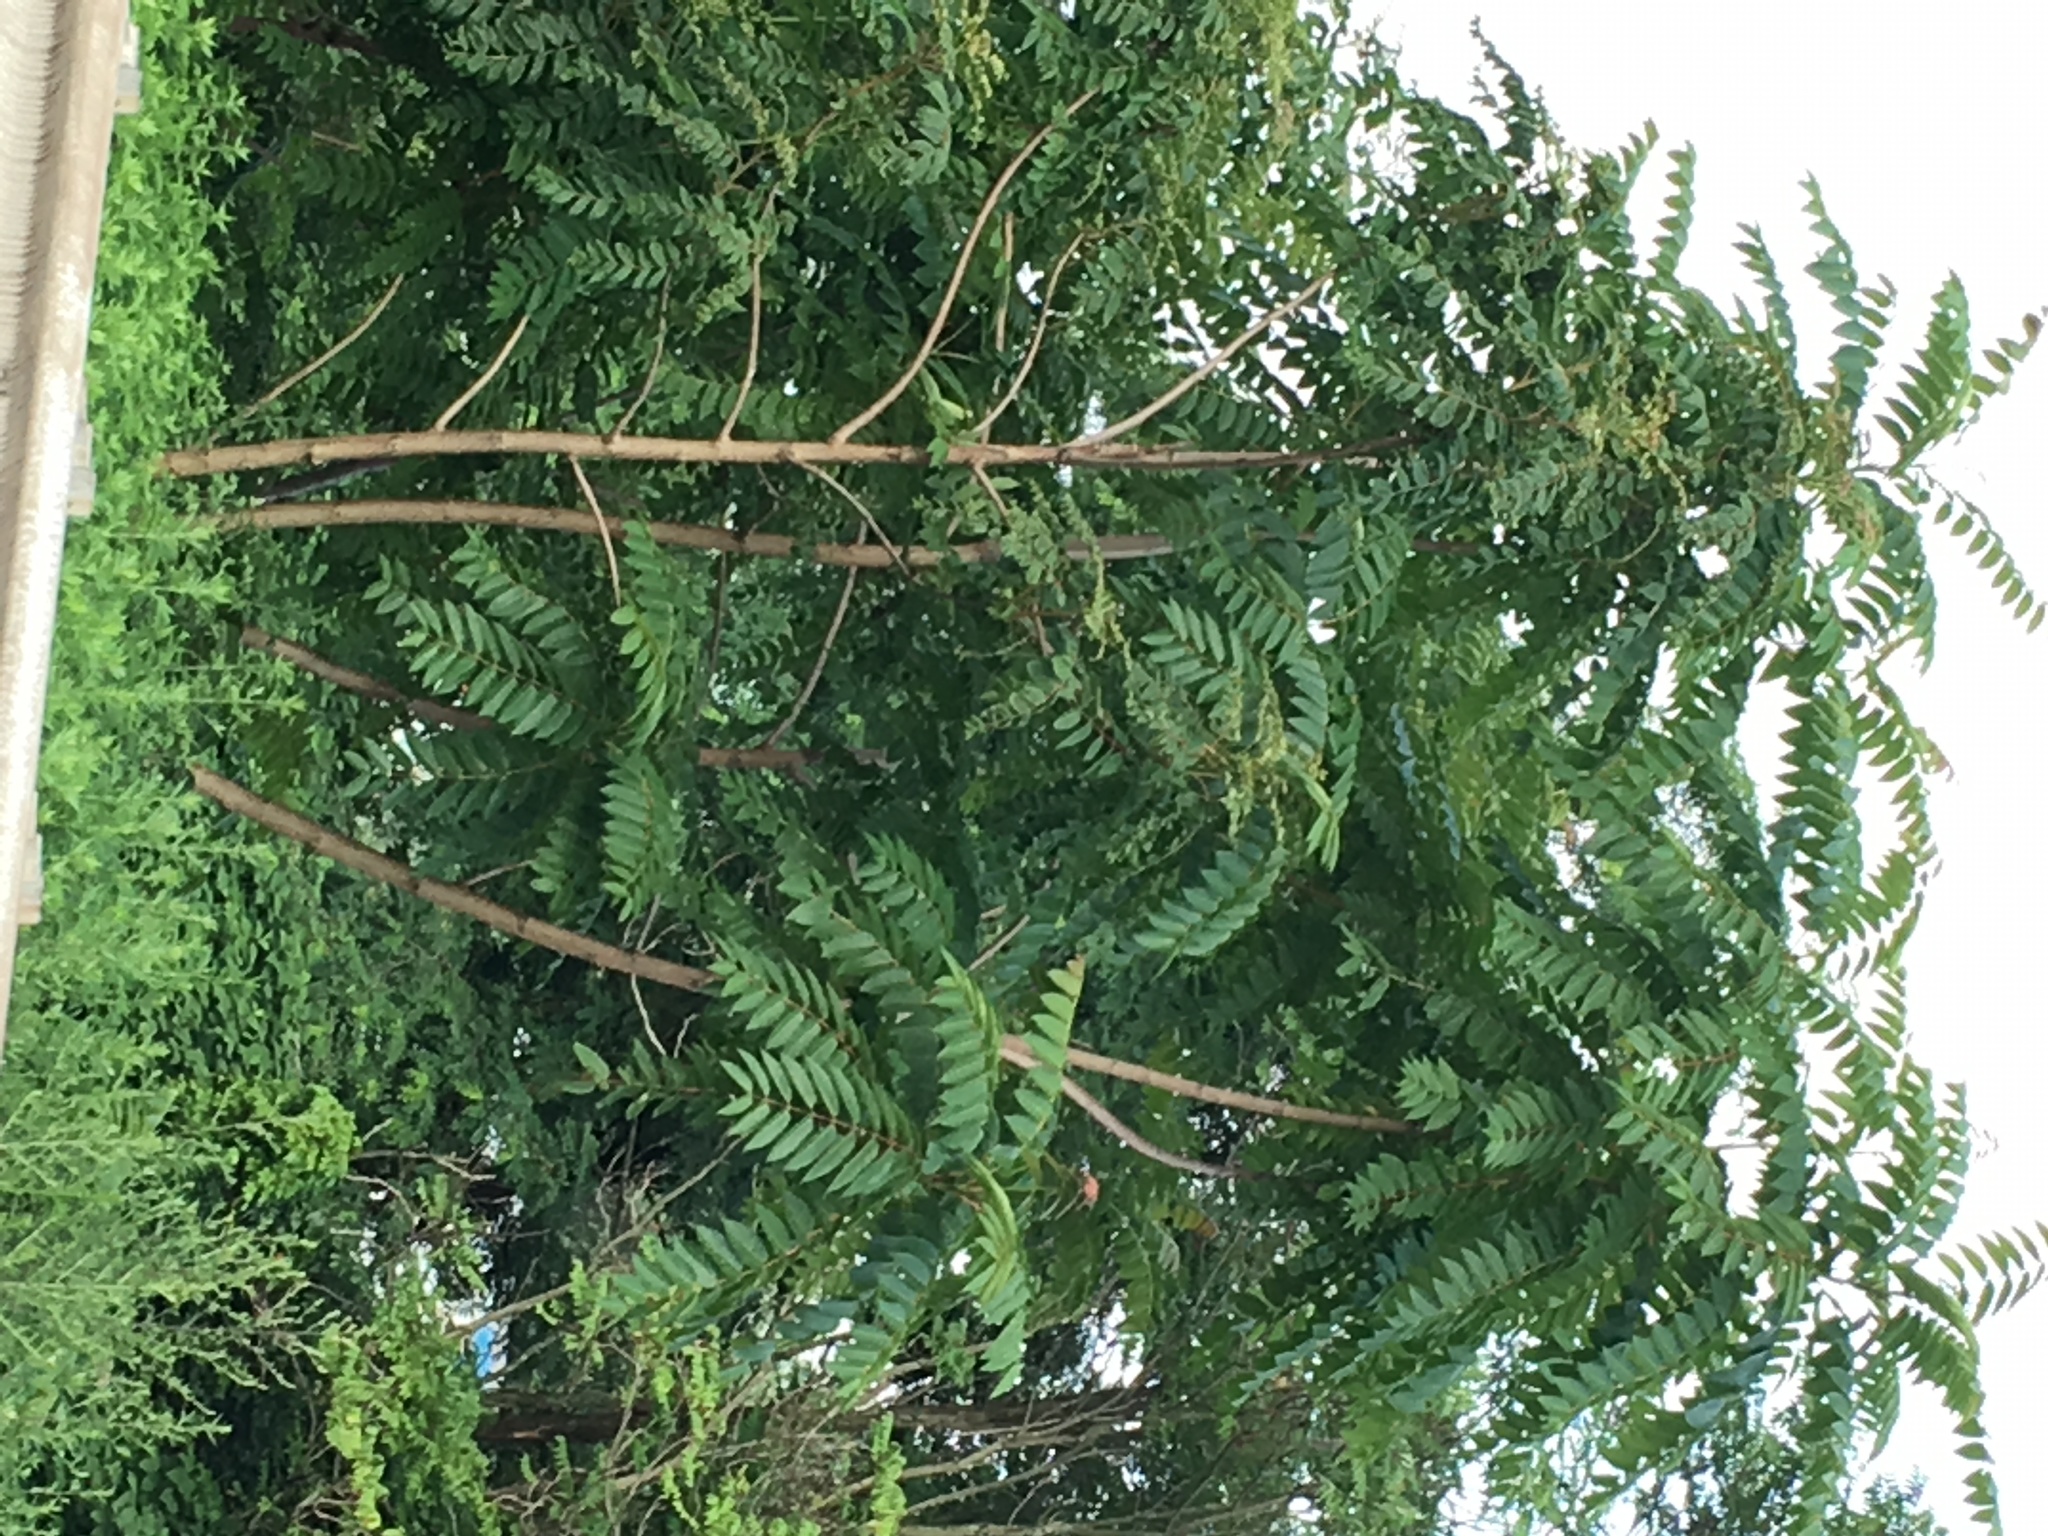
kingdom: Plantae
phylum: Tracheophyta
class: Magnoliopsida
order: Sapindales
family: Simaroubaceae
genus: Ailanthus
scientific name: Ailanthus altissima
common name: Tree-of-heaven
